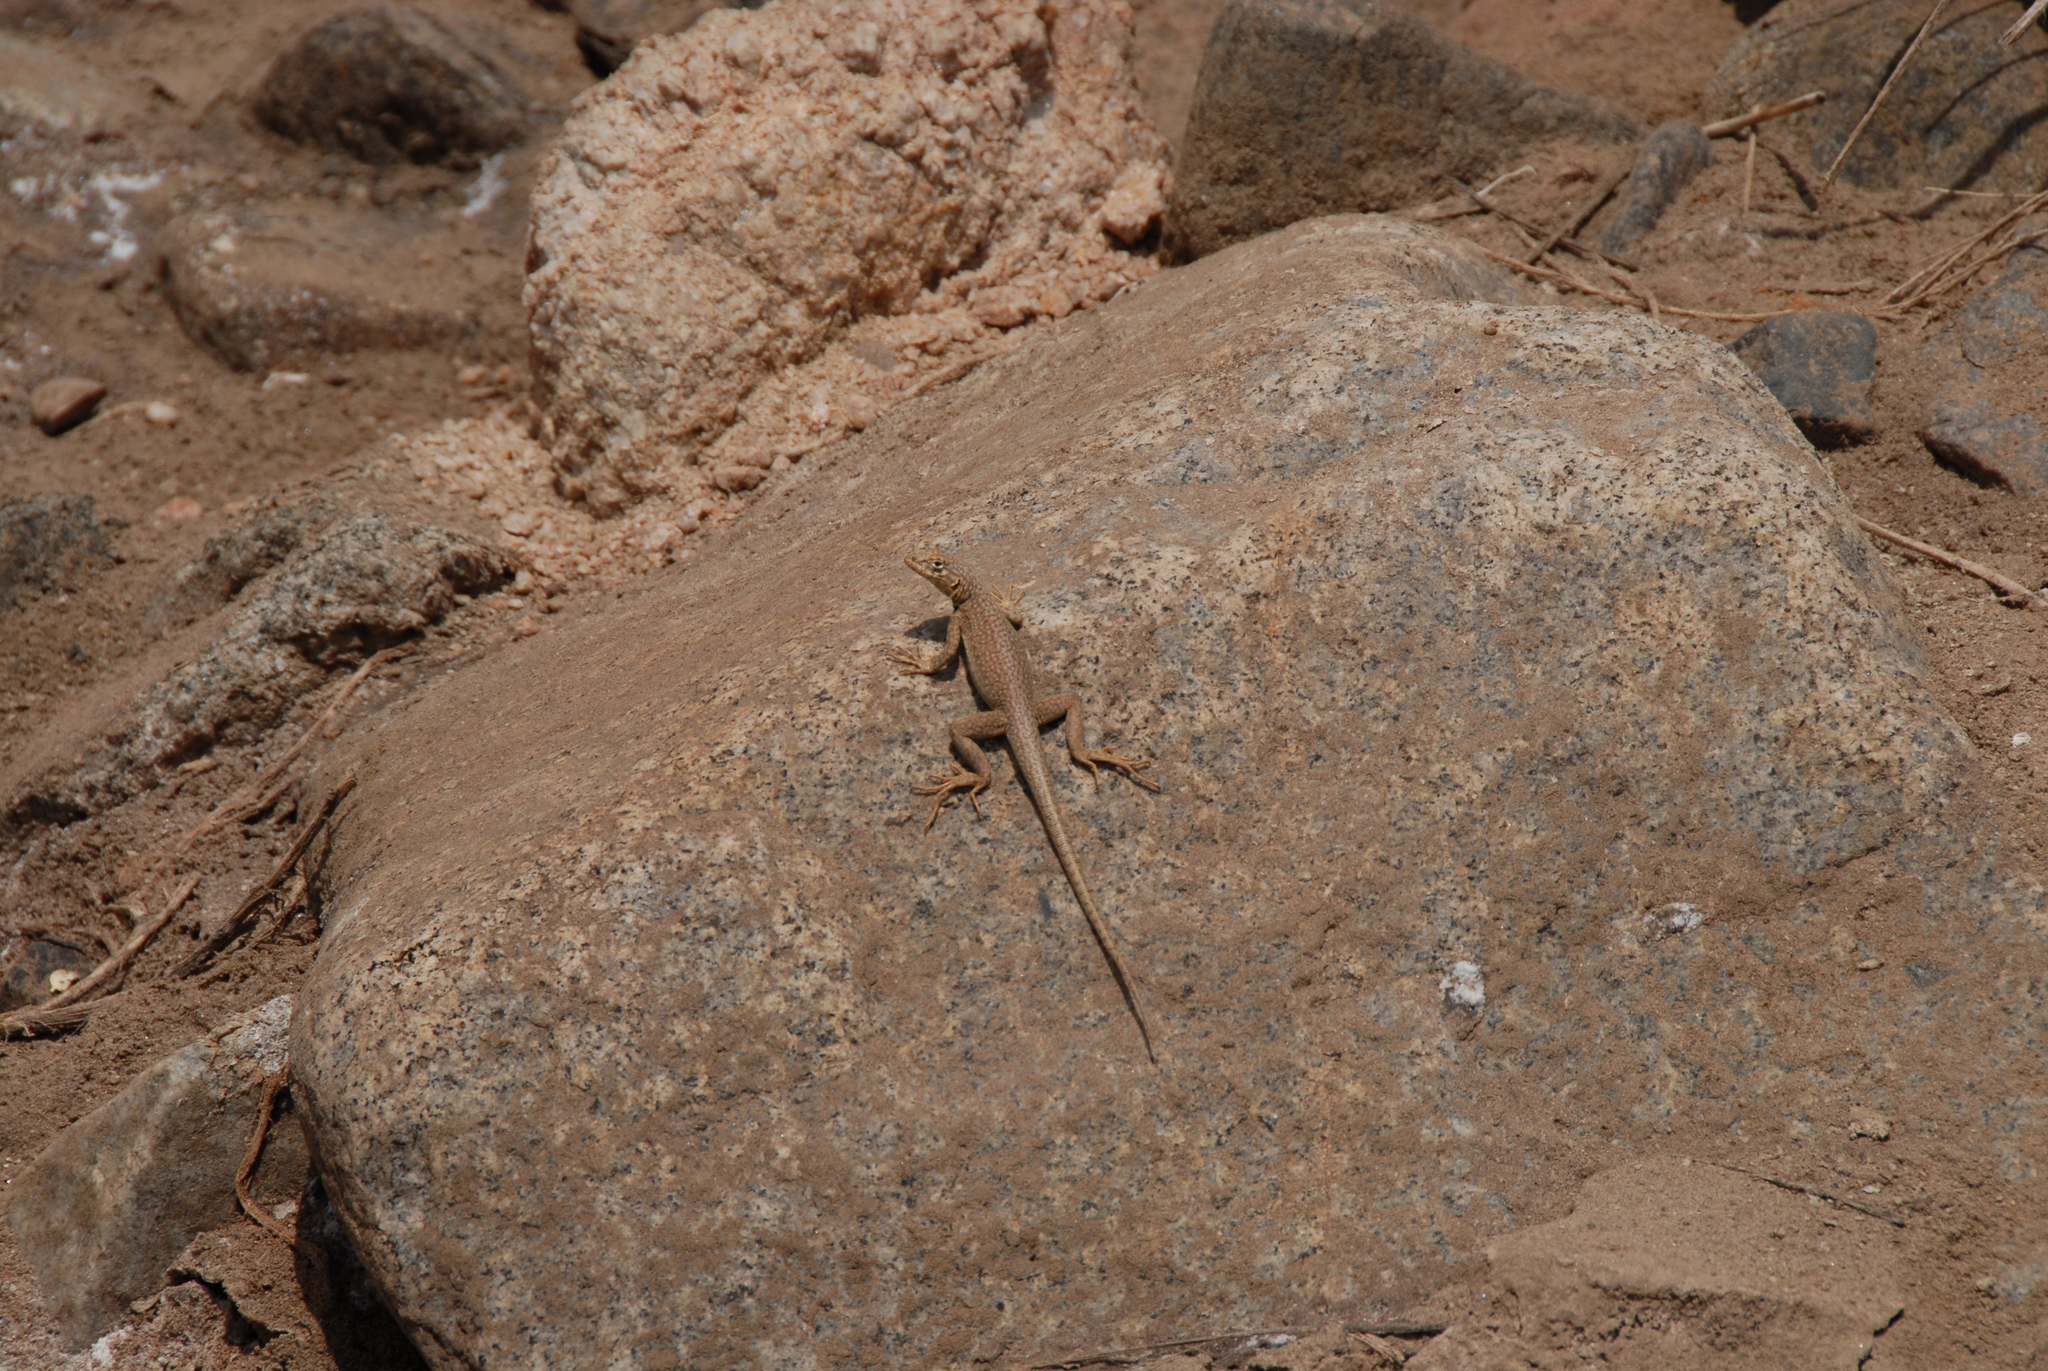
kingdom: Animalia
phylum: Chordata
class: Squamata
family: Tropiduridae
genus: Microlophus
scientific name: Microlophus theresioides
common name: Small pacific iguana
